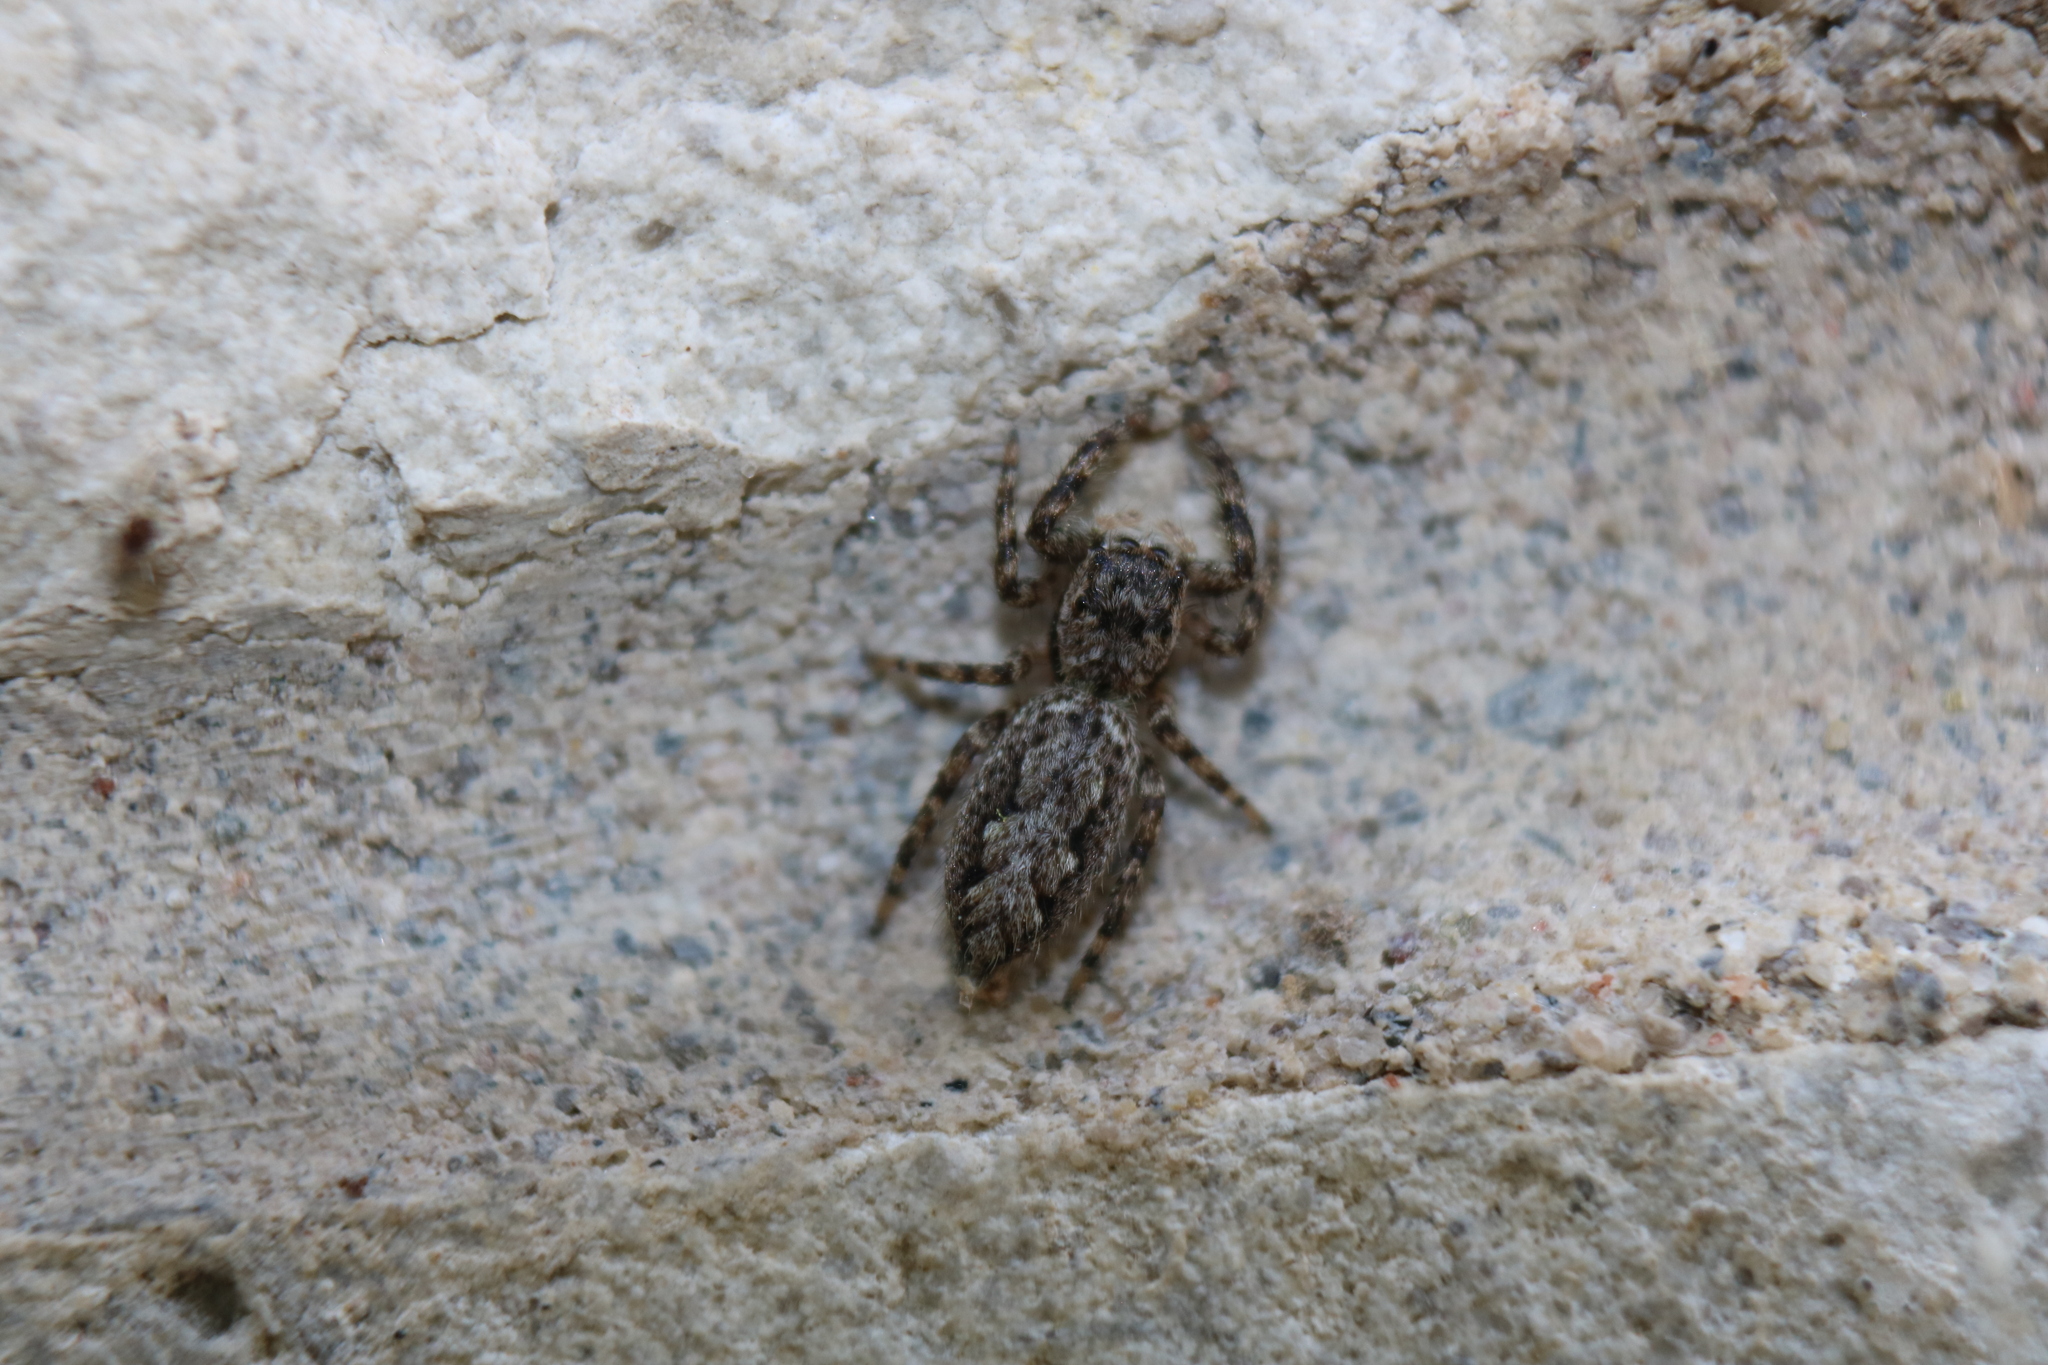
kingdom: Animalia
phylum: Arthropoda
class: Arachnida
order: Araneae
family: Salticidae
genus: Platycryptus
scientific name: Platycryptus undatus
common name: Tan jumping spider
